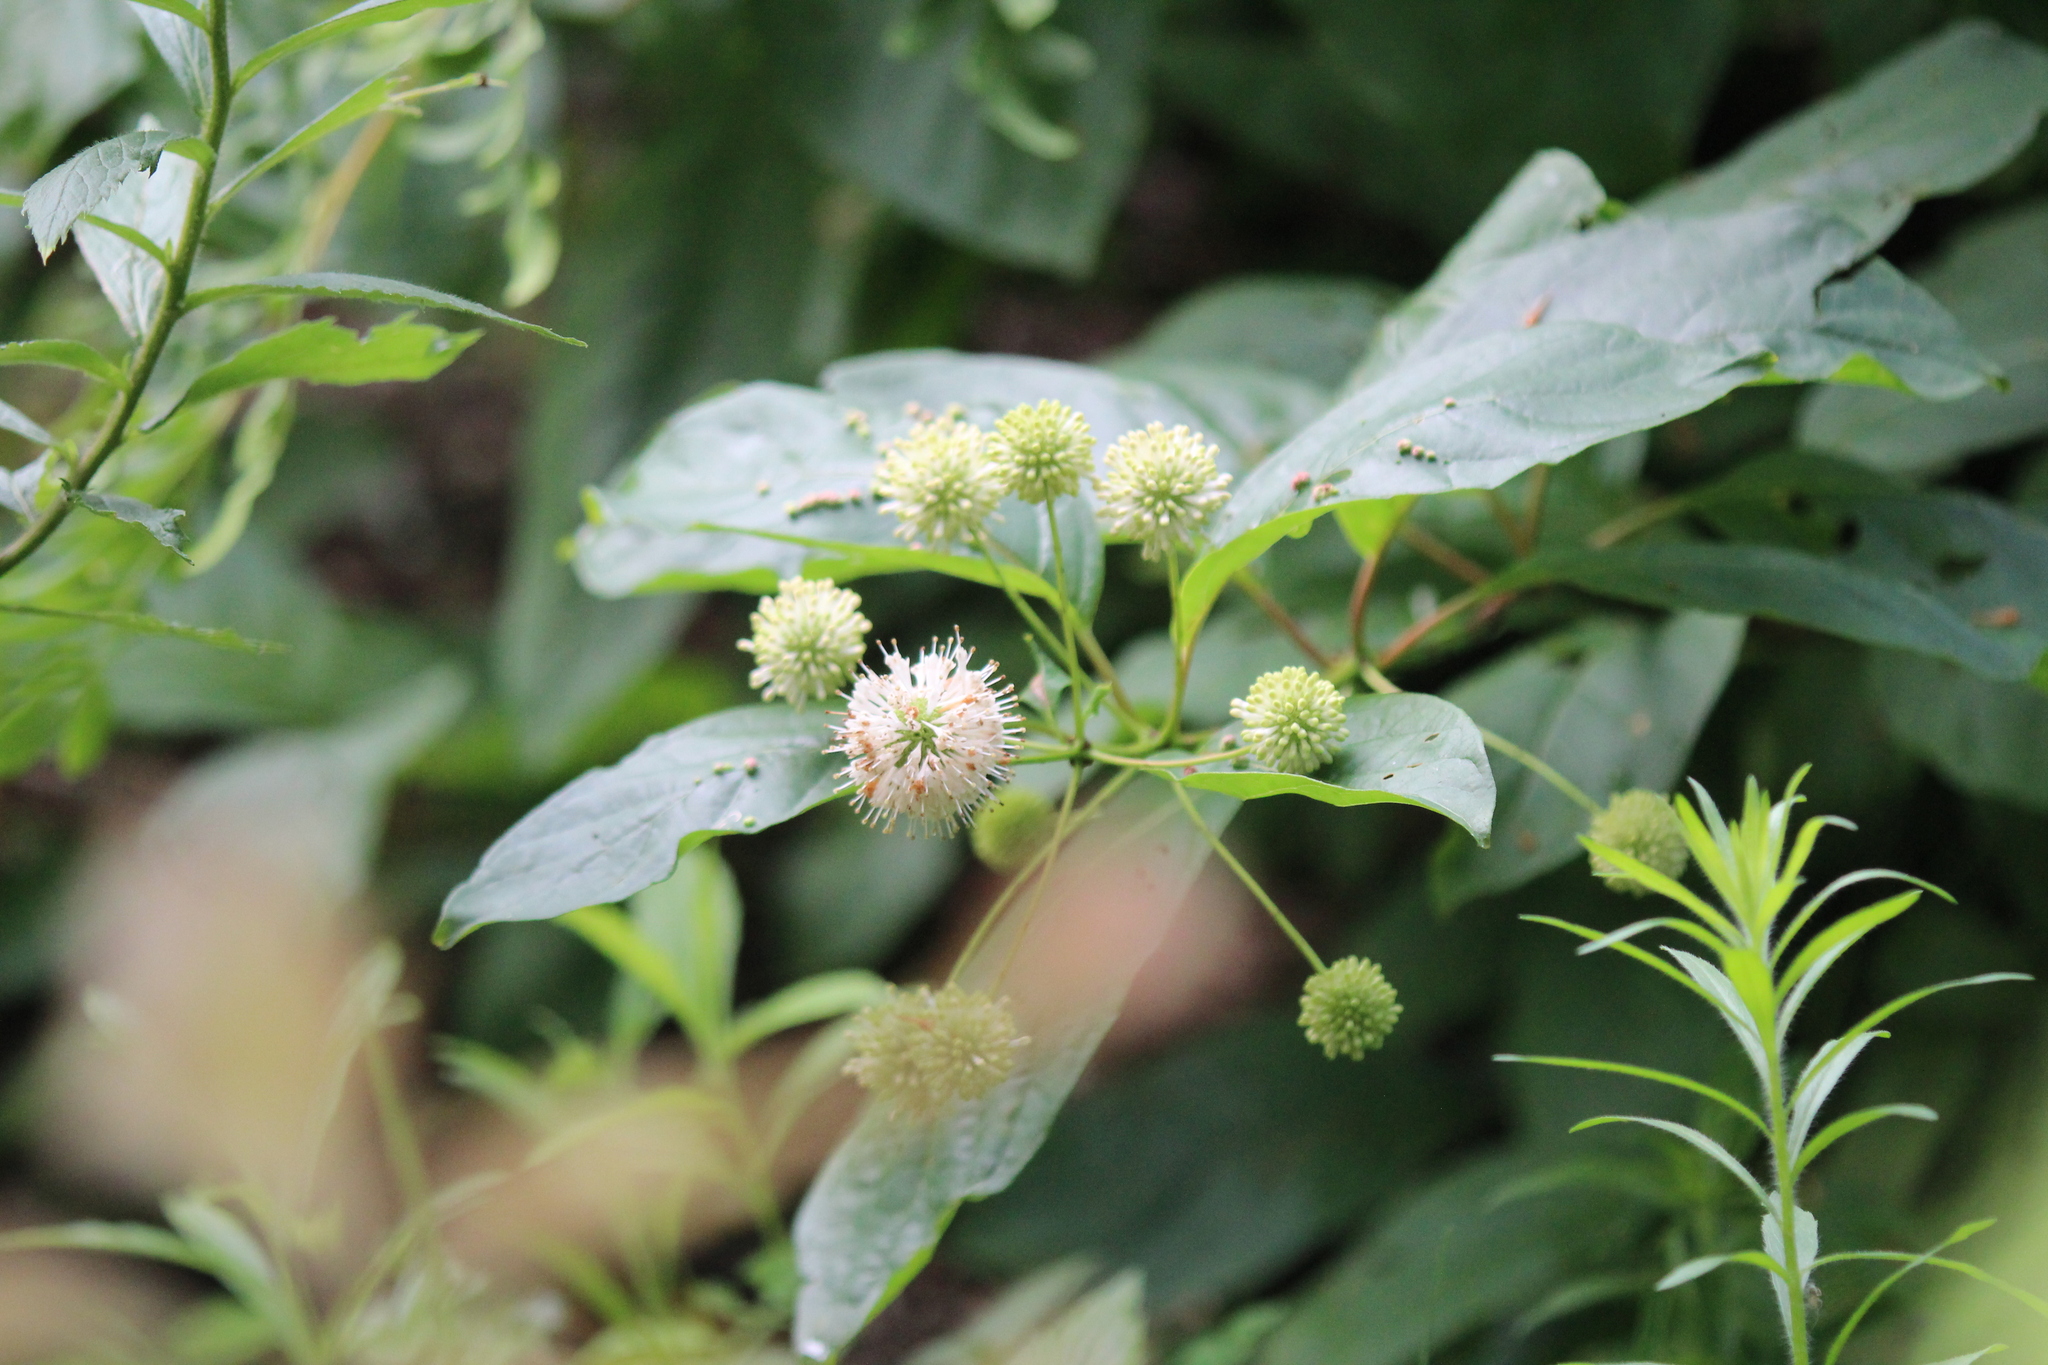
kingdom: Plantae
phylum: Tracheophyta
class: Magnoliopsida
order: Gentianales
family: Rubiaceae
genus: Cephalanthus
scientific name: Cephalanthus occidentalis
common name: Button-willow
